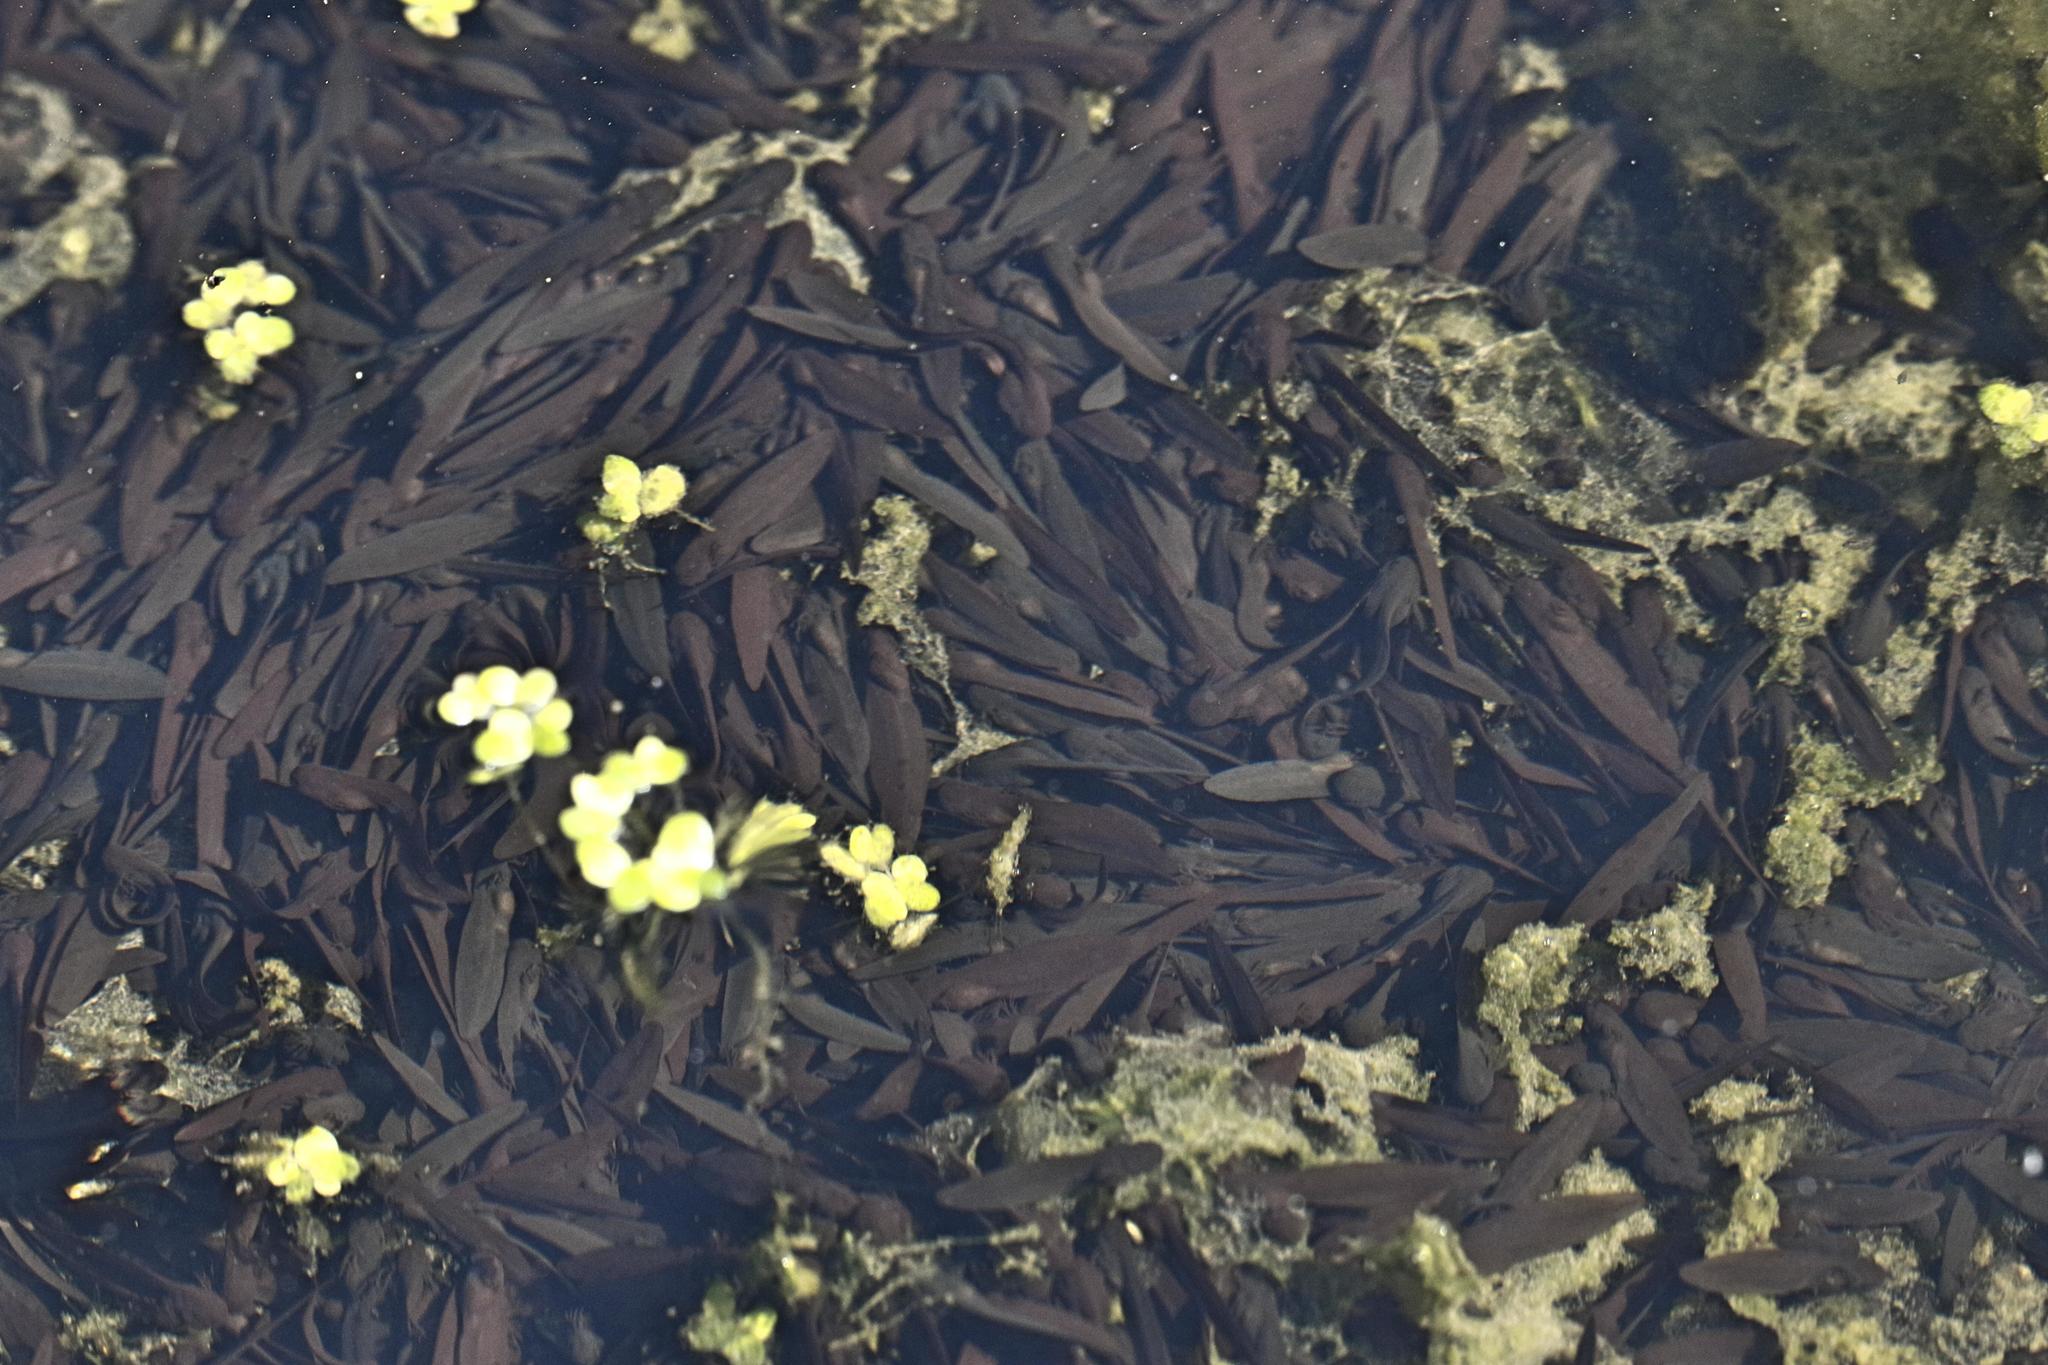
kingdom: Animalia
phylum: Chordata
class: Amphibia
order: Anura
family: Ranidae
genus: Rana
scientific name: Rana temporaria
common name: Common frog
